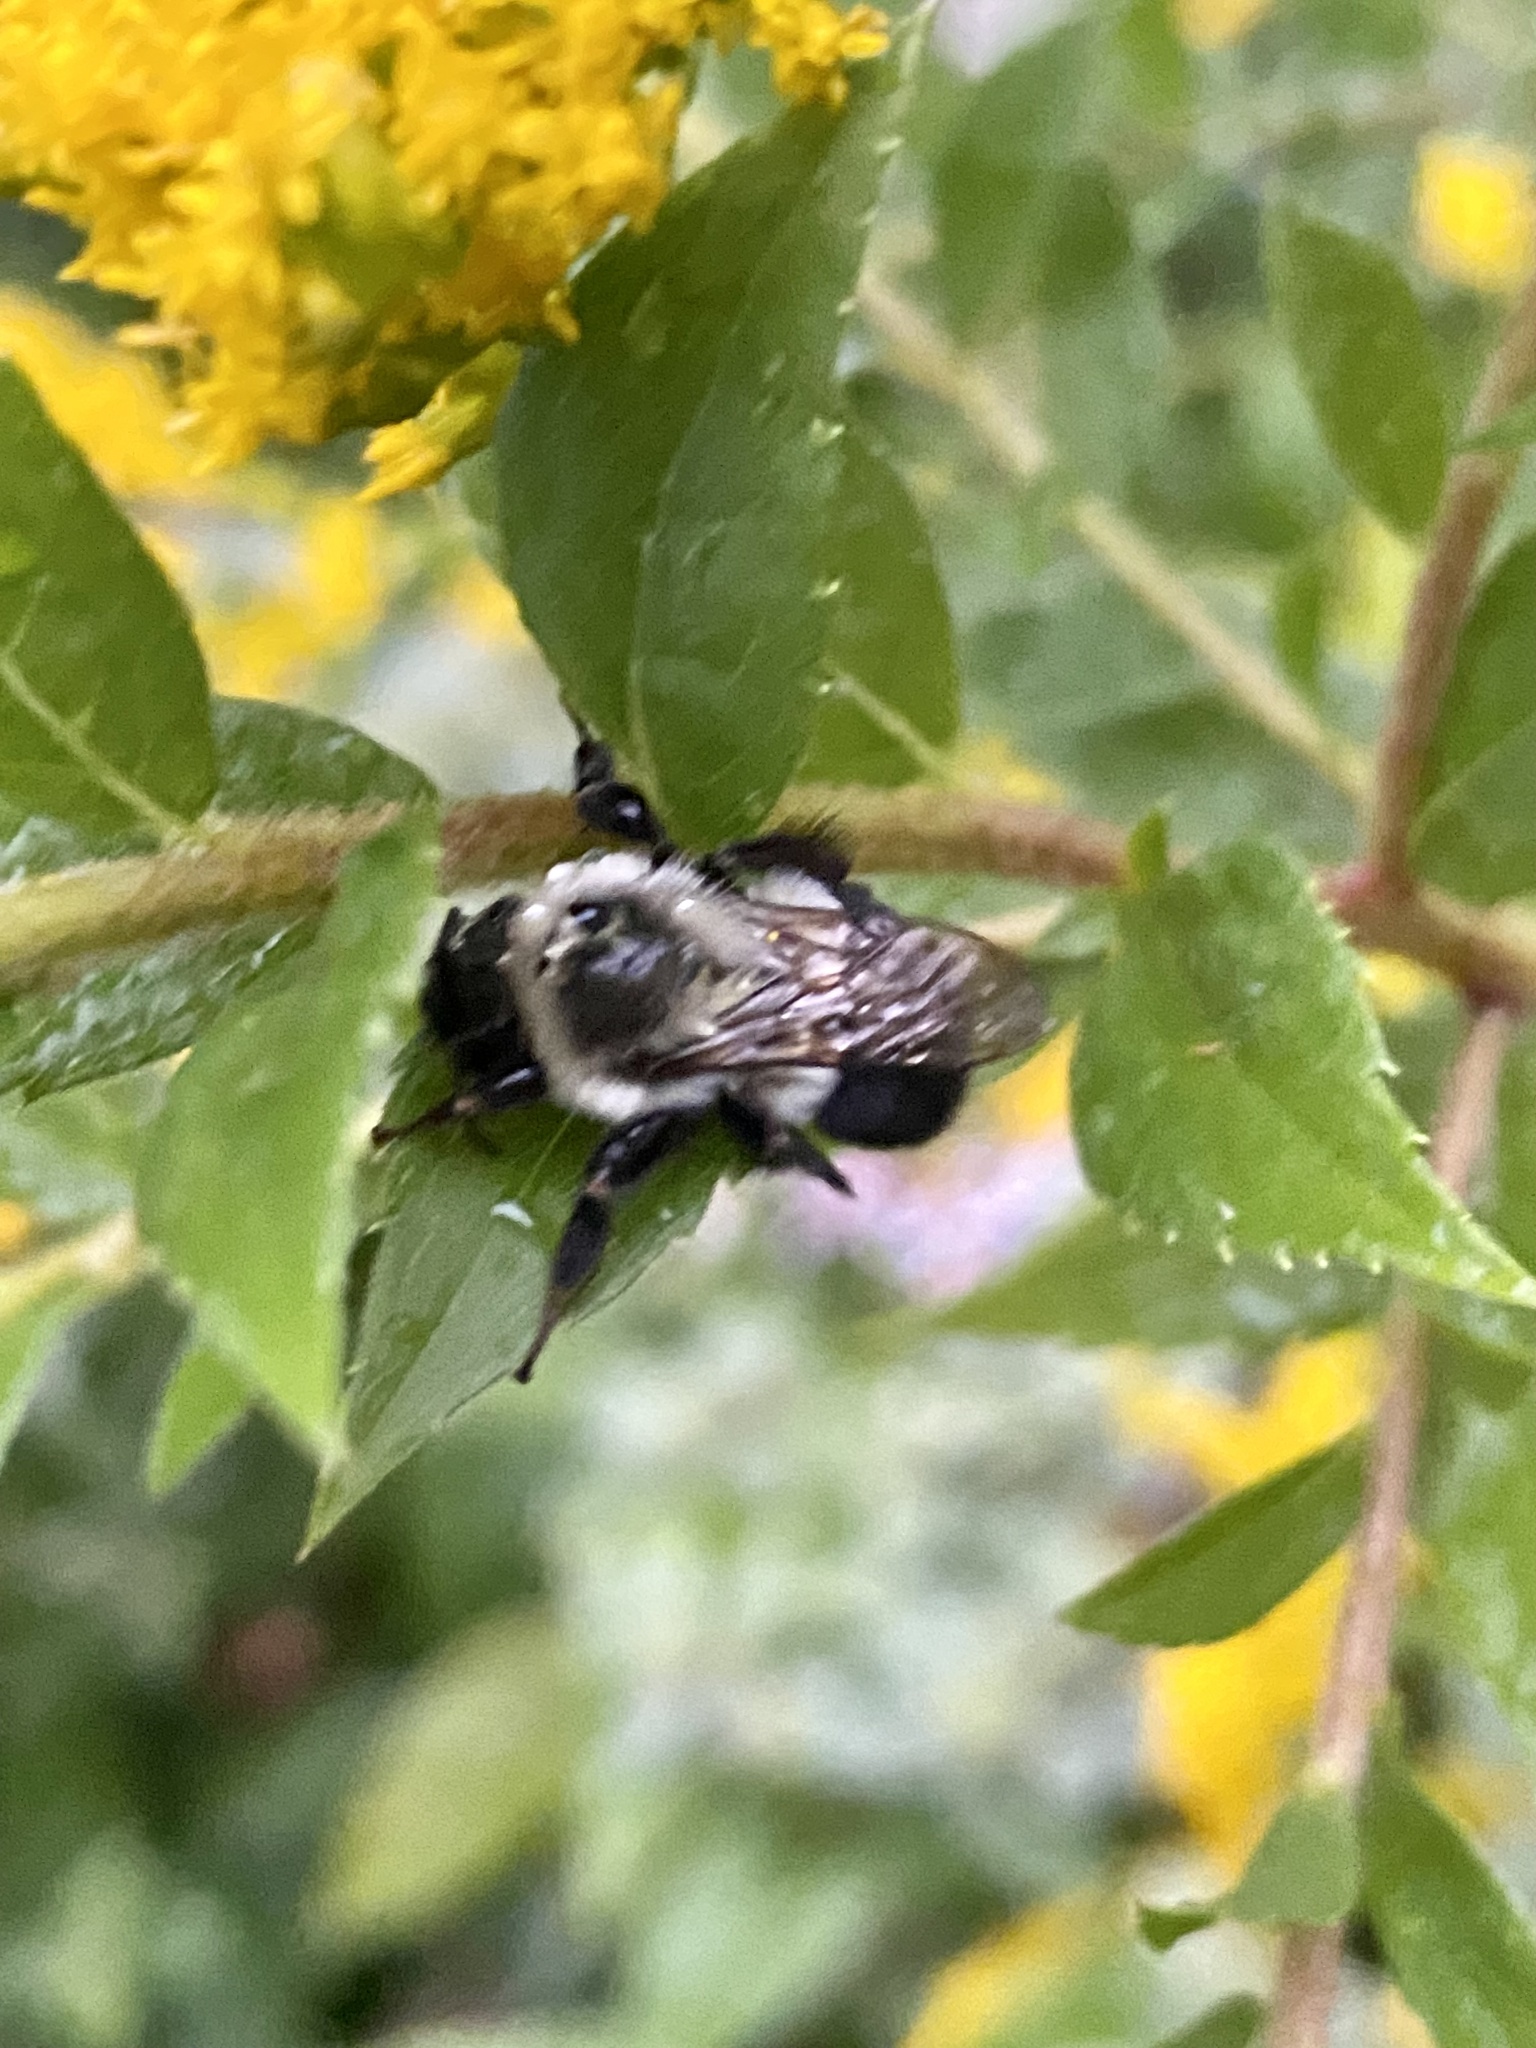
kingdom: Animalia
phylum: Arthropoda
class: Insecta
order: Hymenoptera
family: Apidae
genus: Bombus
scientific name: Bombus impatiens
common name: Common eastern bumble bee
